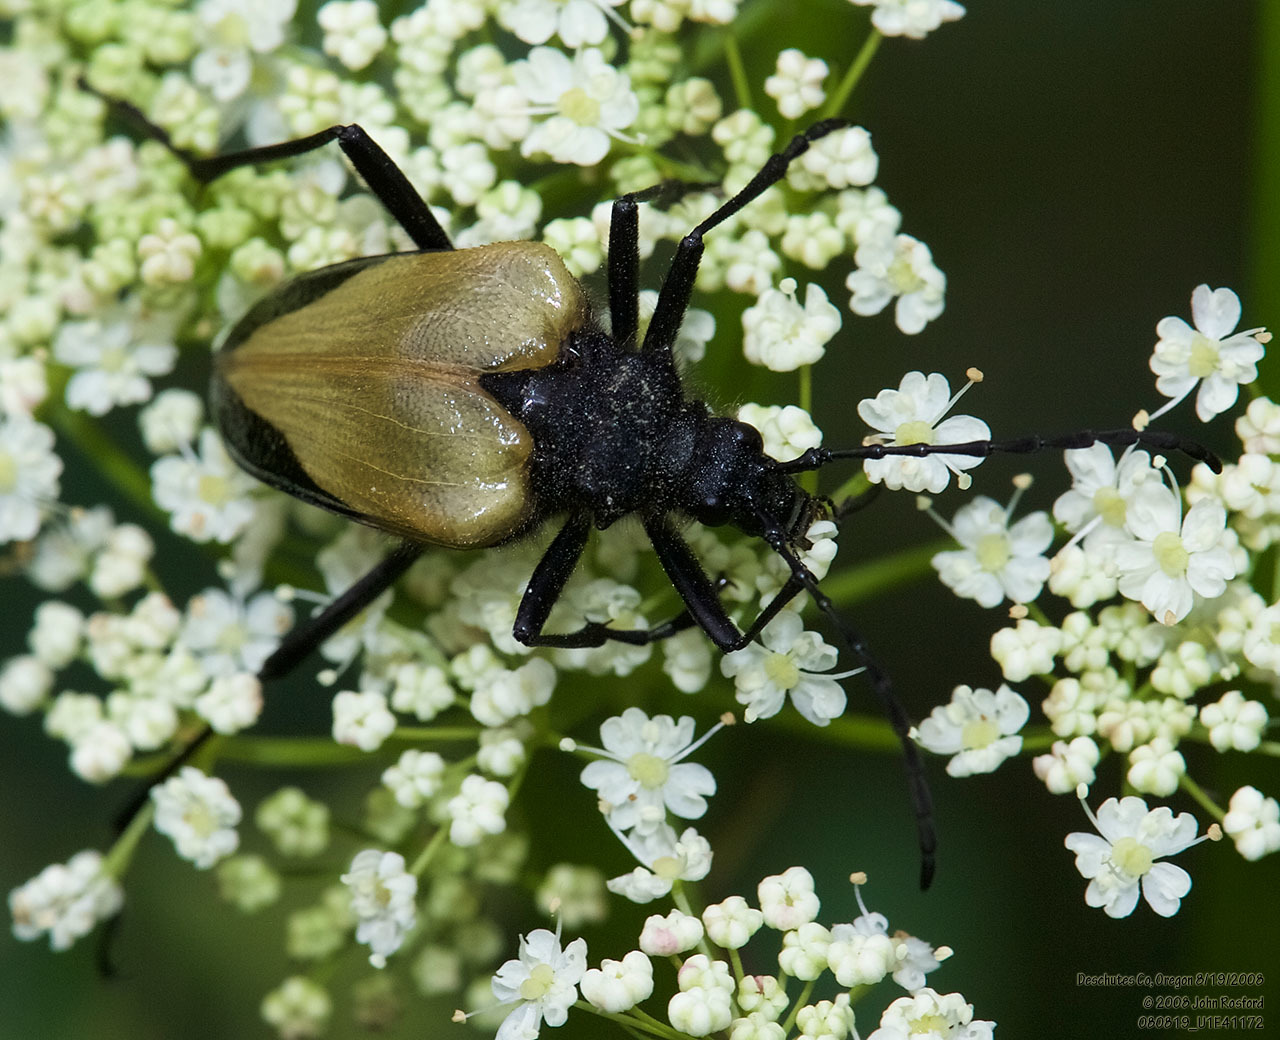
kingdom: Animalia
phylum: Arthropoda
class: Insecta
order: Coleoptera
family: Cerambycidae
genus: Pachyta
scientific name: Pachyta armata
